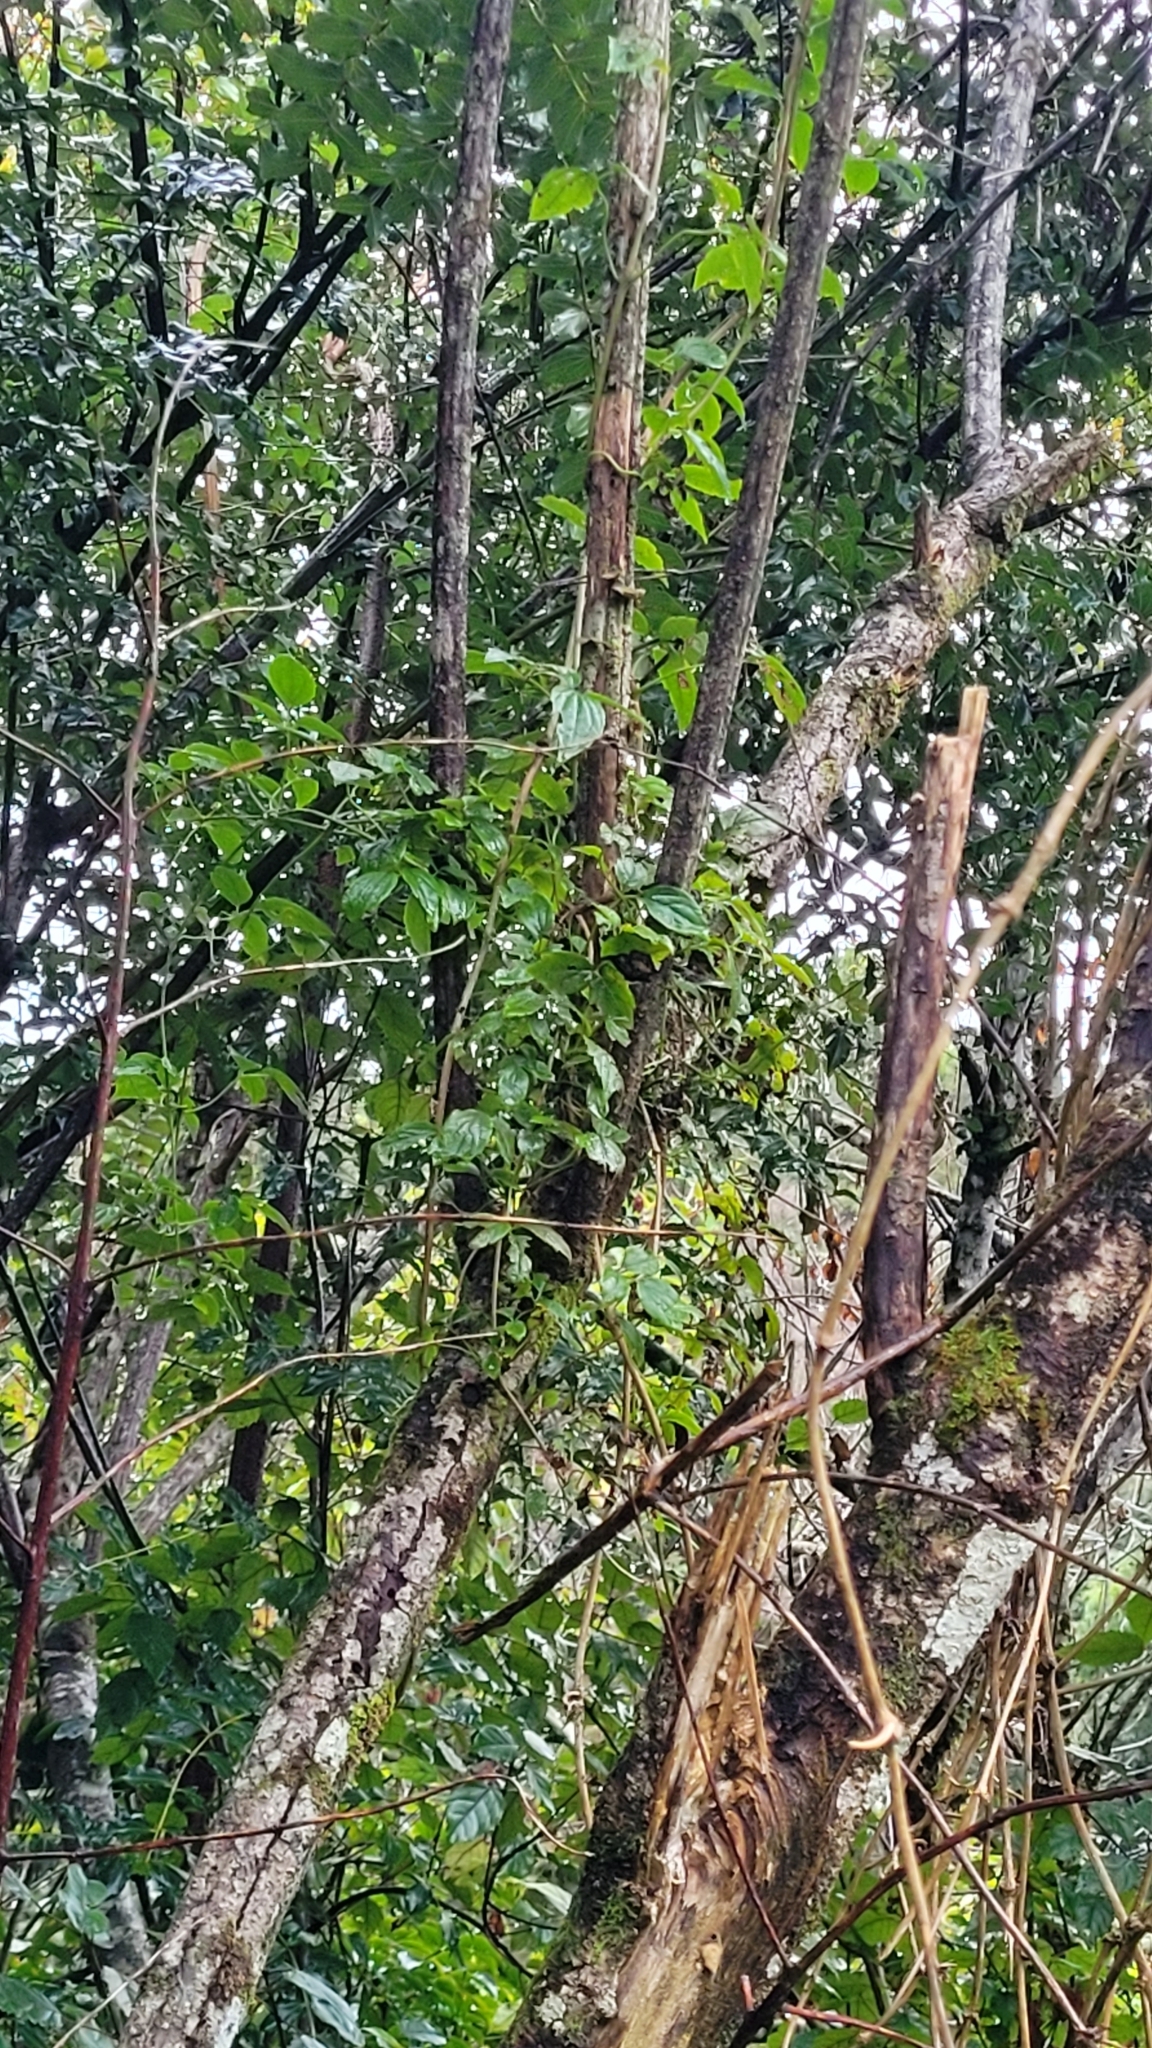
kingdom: Plantae
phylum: Tracheophyta
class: Magnoliopsida
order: Ranunculales
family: Ranunculaceae
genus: Clematis
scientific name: Clematis vitalba
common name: Evergreen clematis
